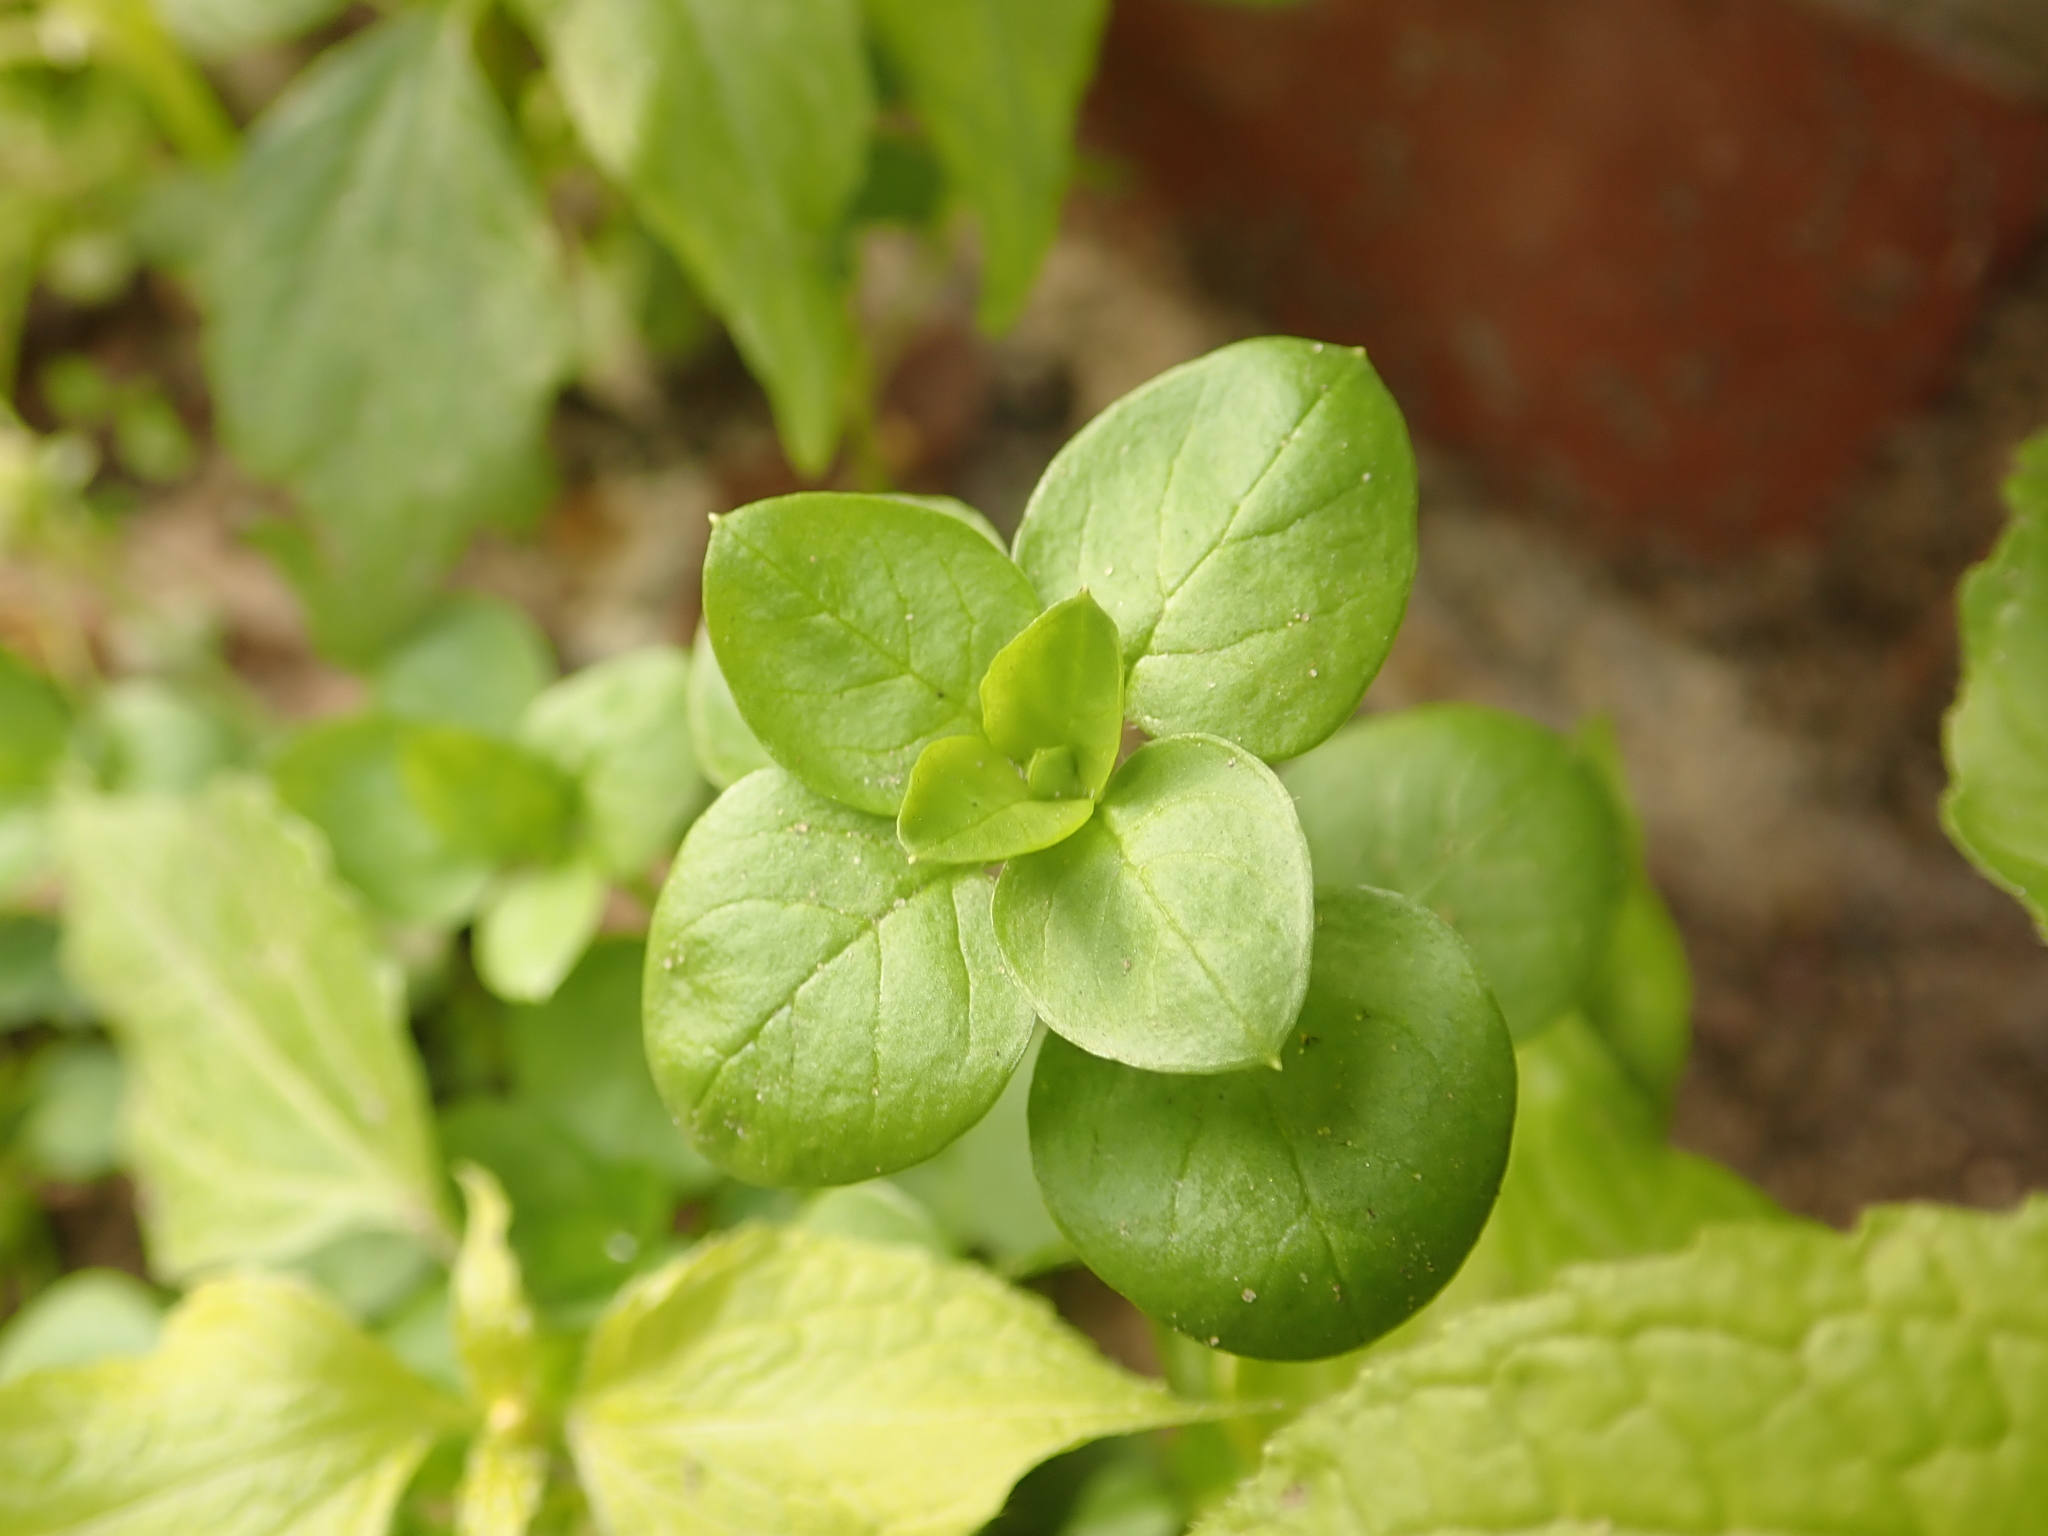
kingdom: Plantae
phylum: Tracheophyta
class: Magnoliopsida
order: Caryophyllales
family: Caryophyllaceae
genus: Stellaria
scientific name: Stellaria media
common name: Common chickweed
